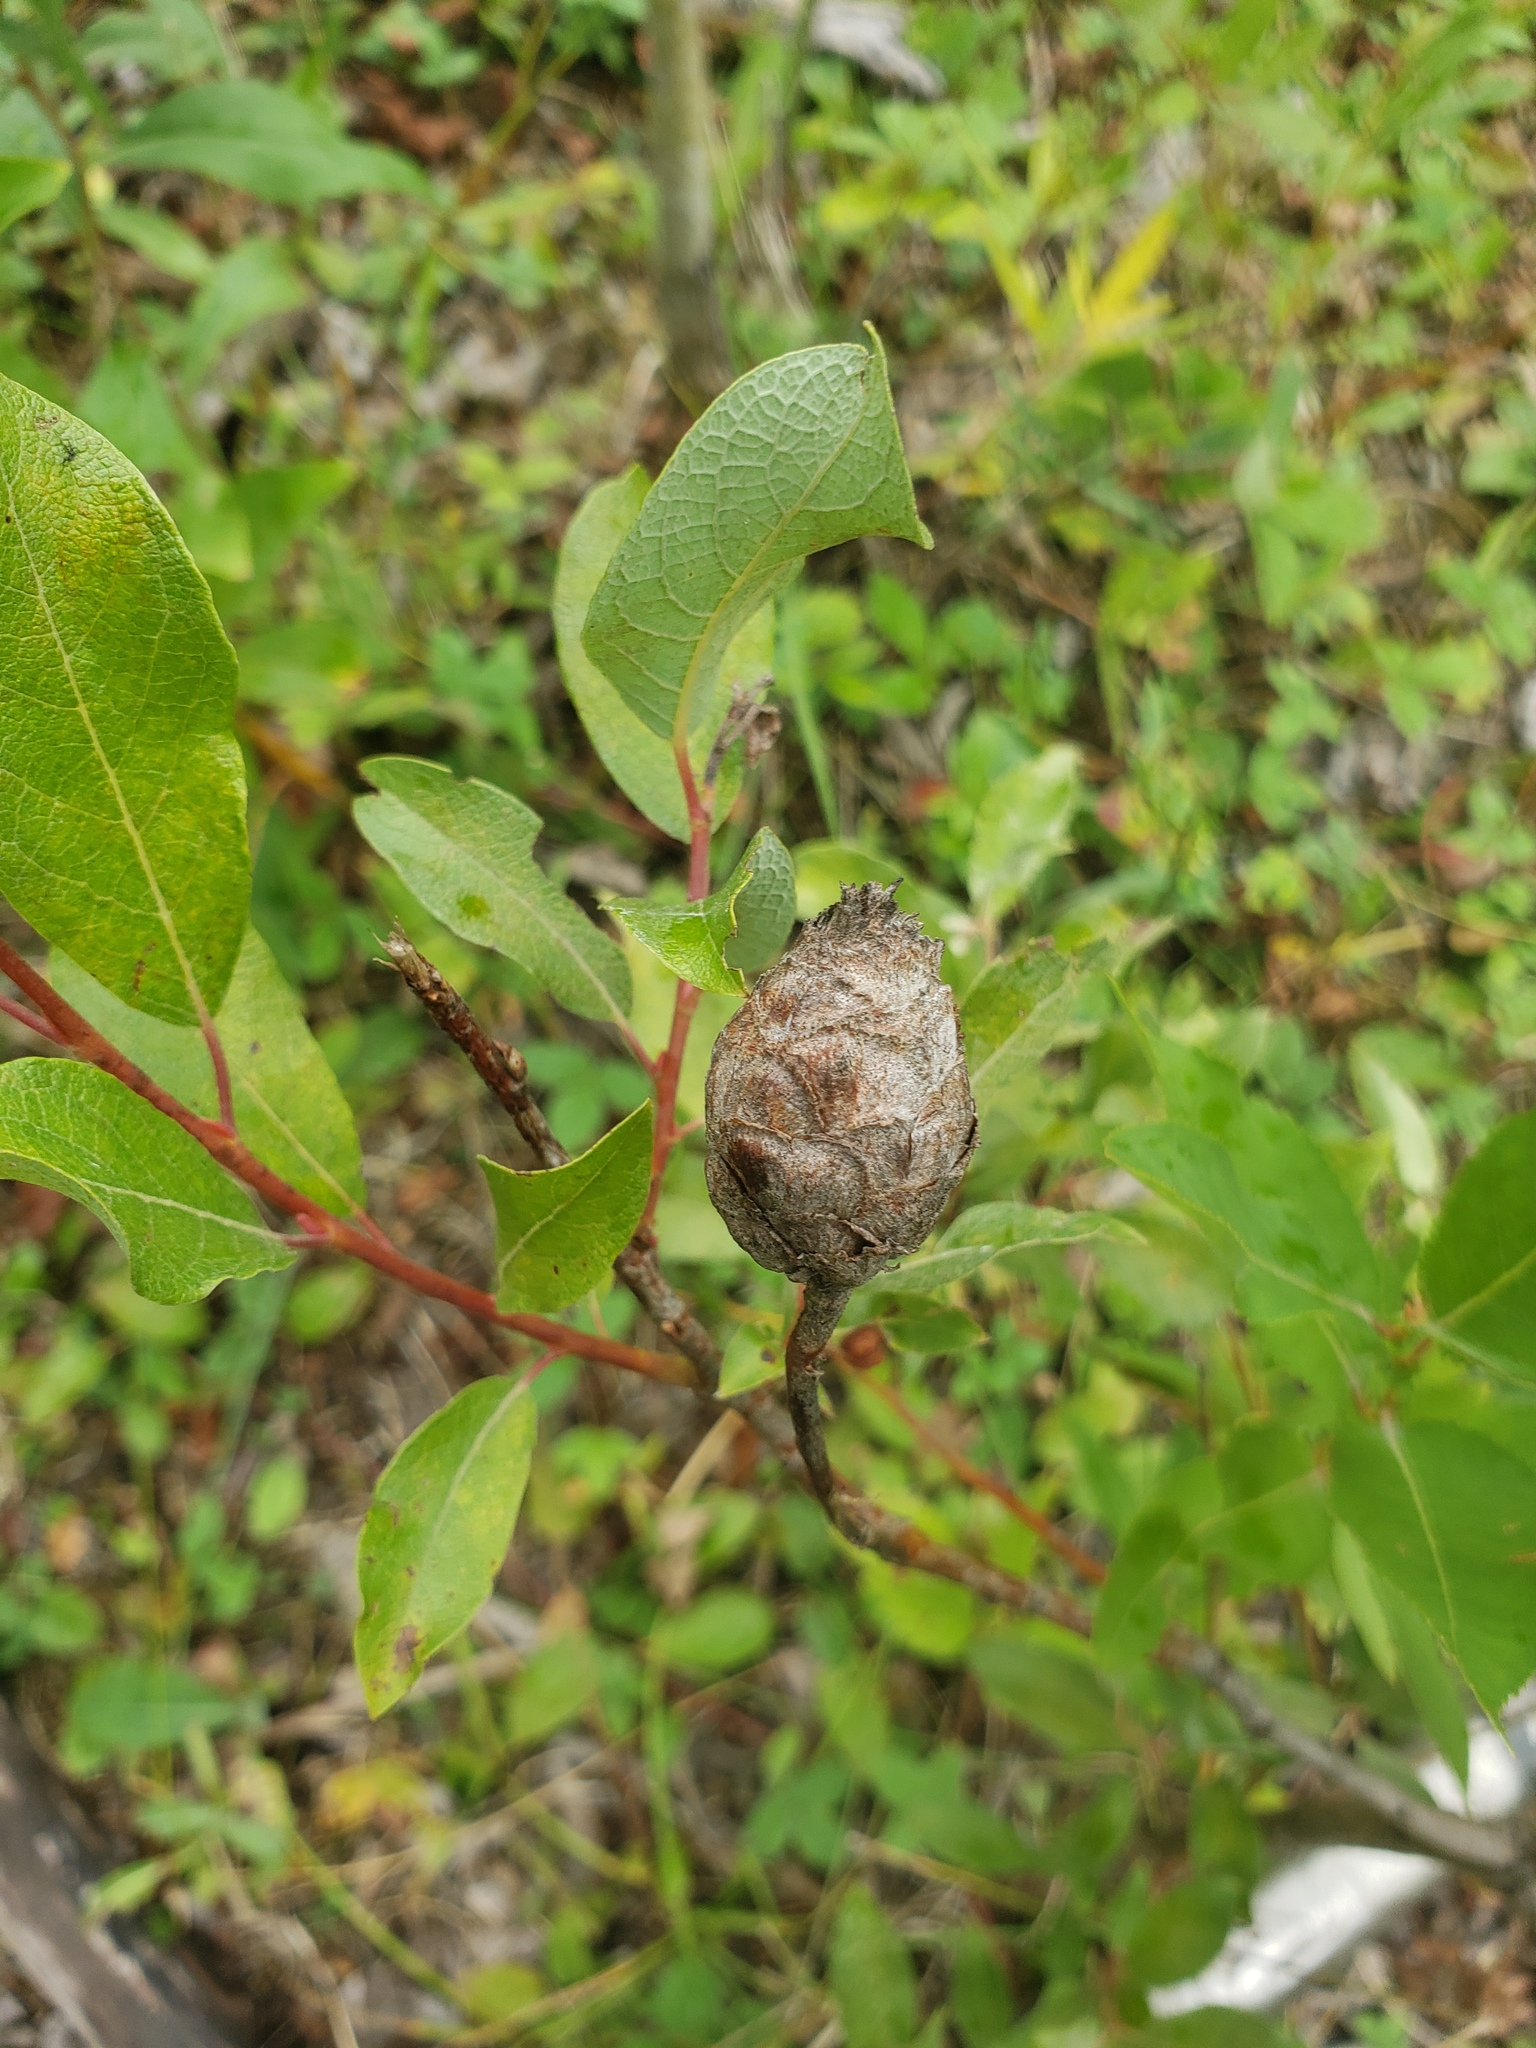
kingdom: Animalia
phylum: Arthropoda
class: Insecta
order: Diptera
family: Cecidomyiidae
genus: Rabdophaga
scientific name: Rabdophaga strobiloides
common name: Willow pinecone gall midge
